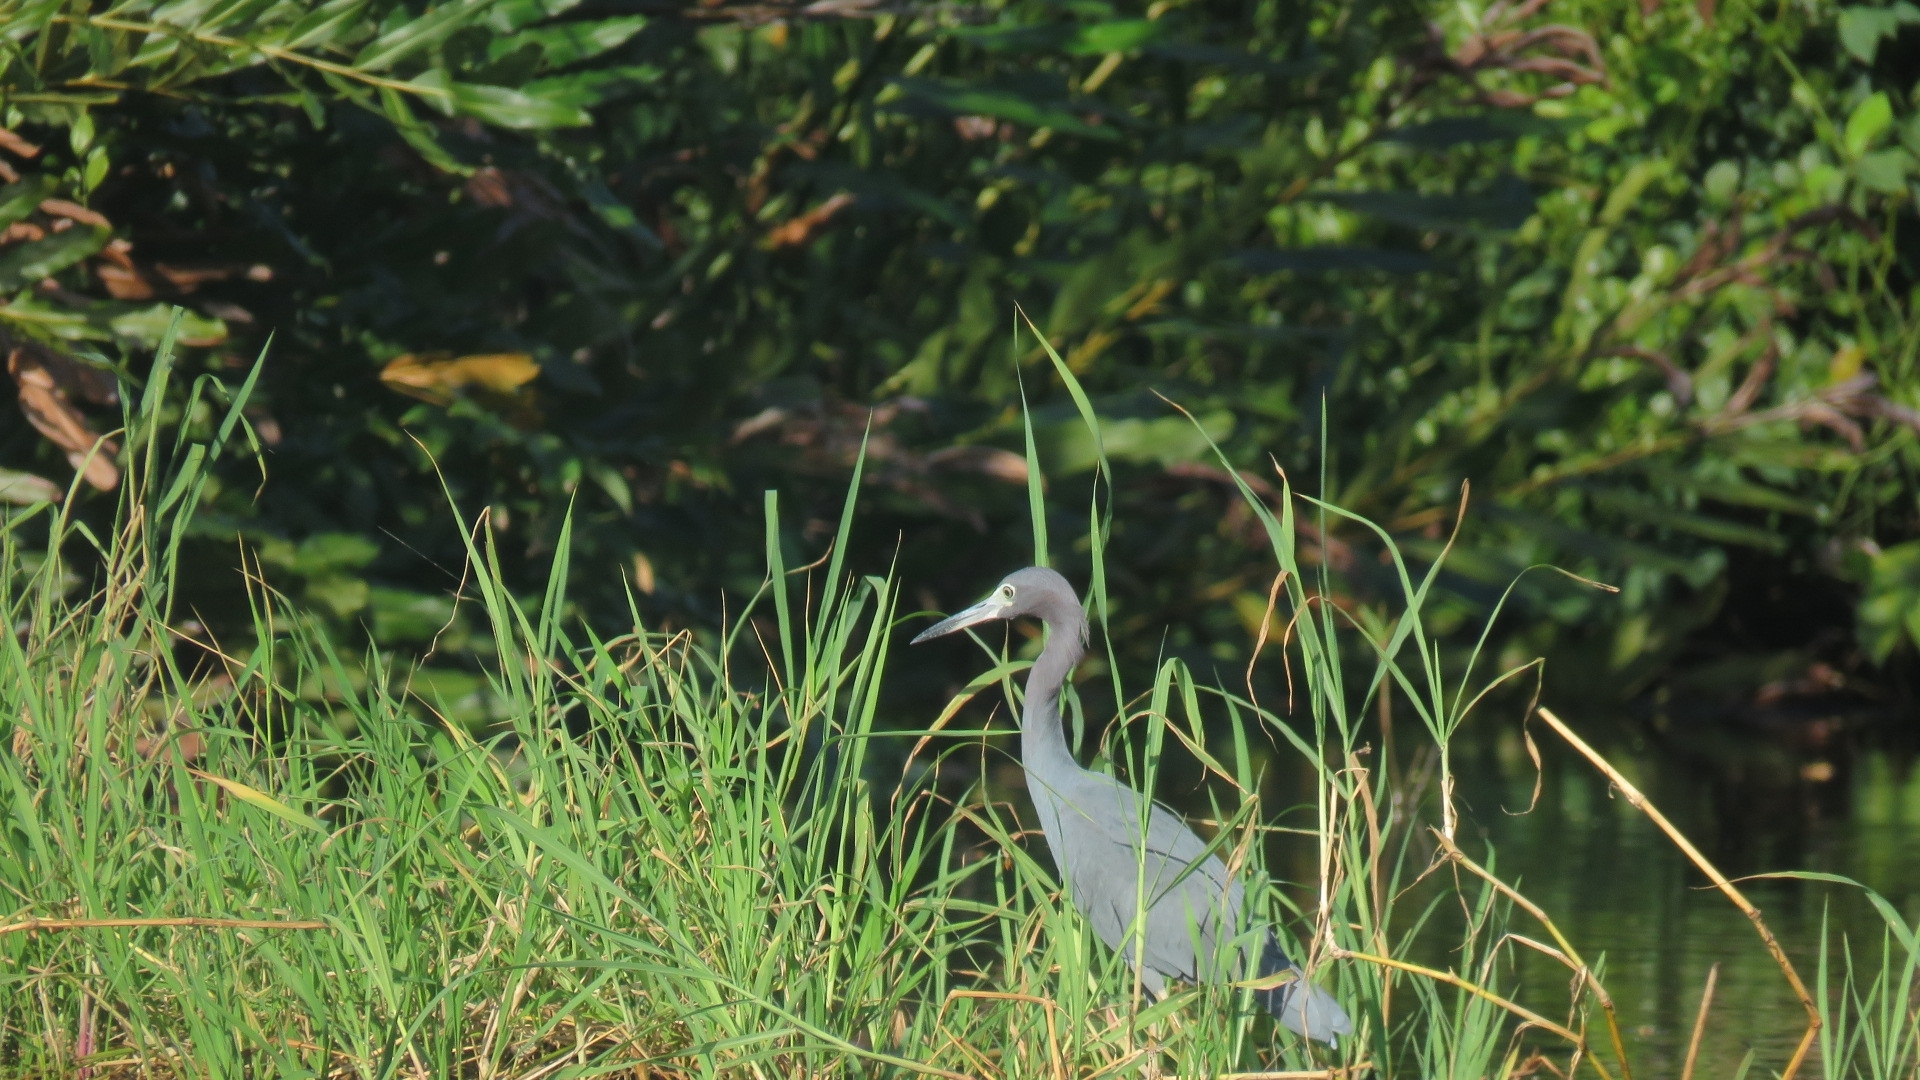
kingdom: Animalia
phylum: Chordata
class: Aves
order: Pelecaniformes
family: Ardeidae
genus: Egretta
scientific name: Egretta caerulea
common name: Little blue heron
